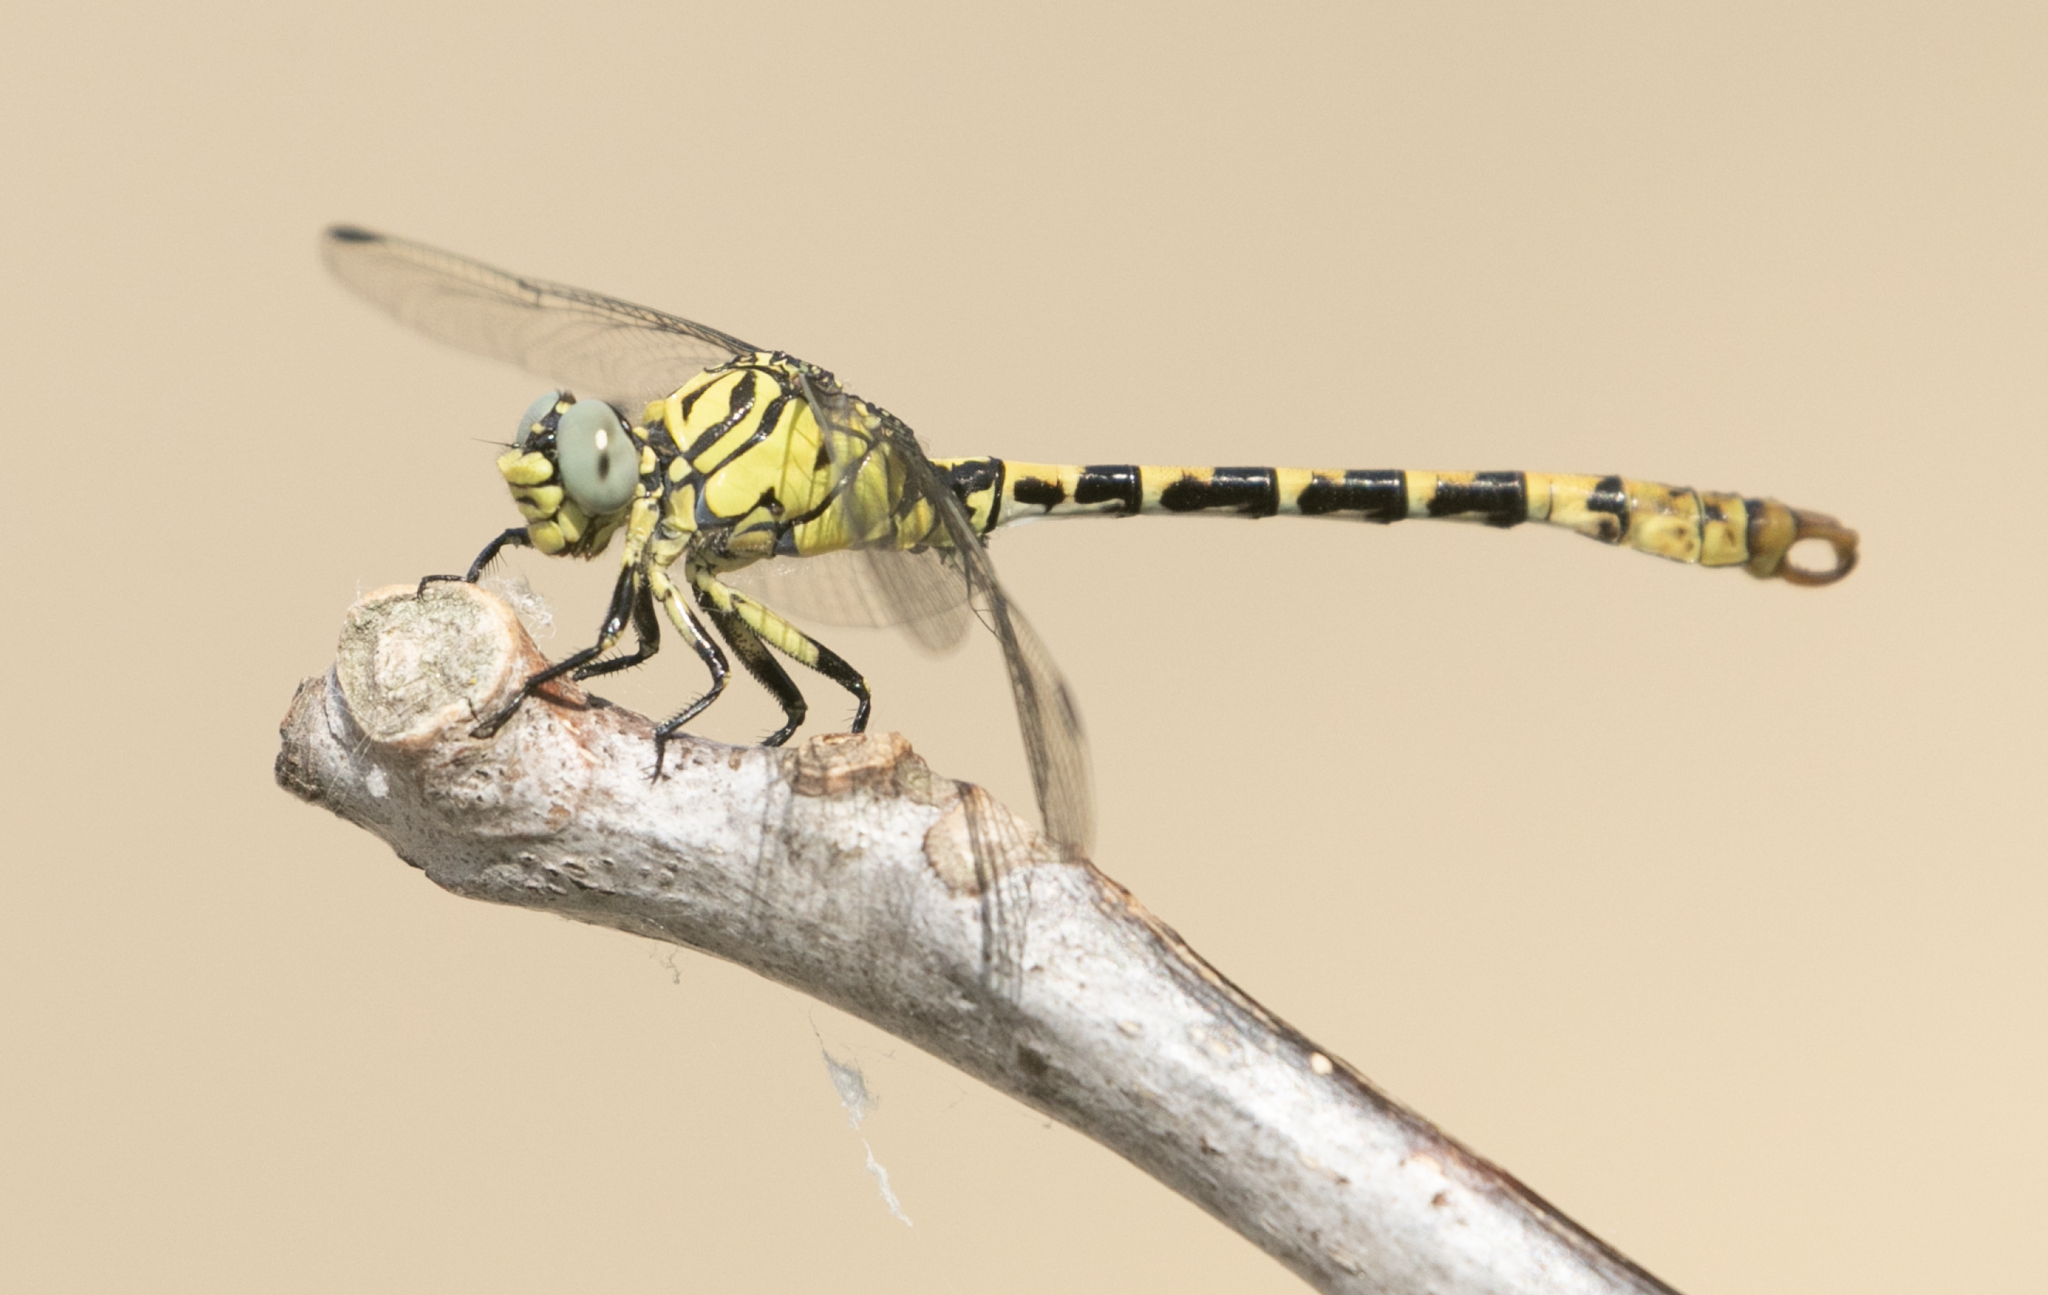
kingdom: Animalia
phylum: Arthropoda
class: Insecta
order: Odonata
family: Gomphidae
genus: Onychogomphus
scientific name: Onychogomphus forcipatus
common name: Small pincertail
